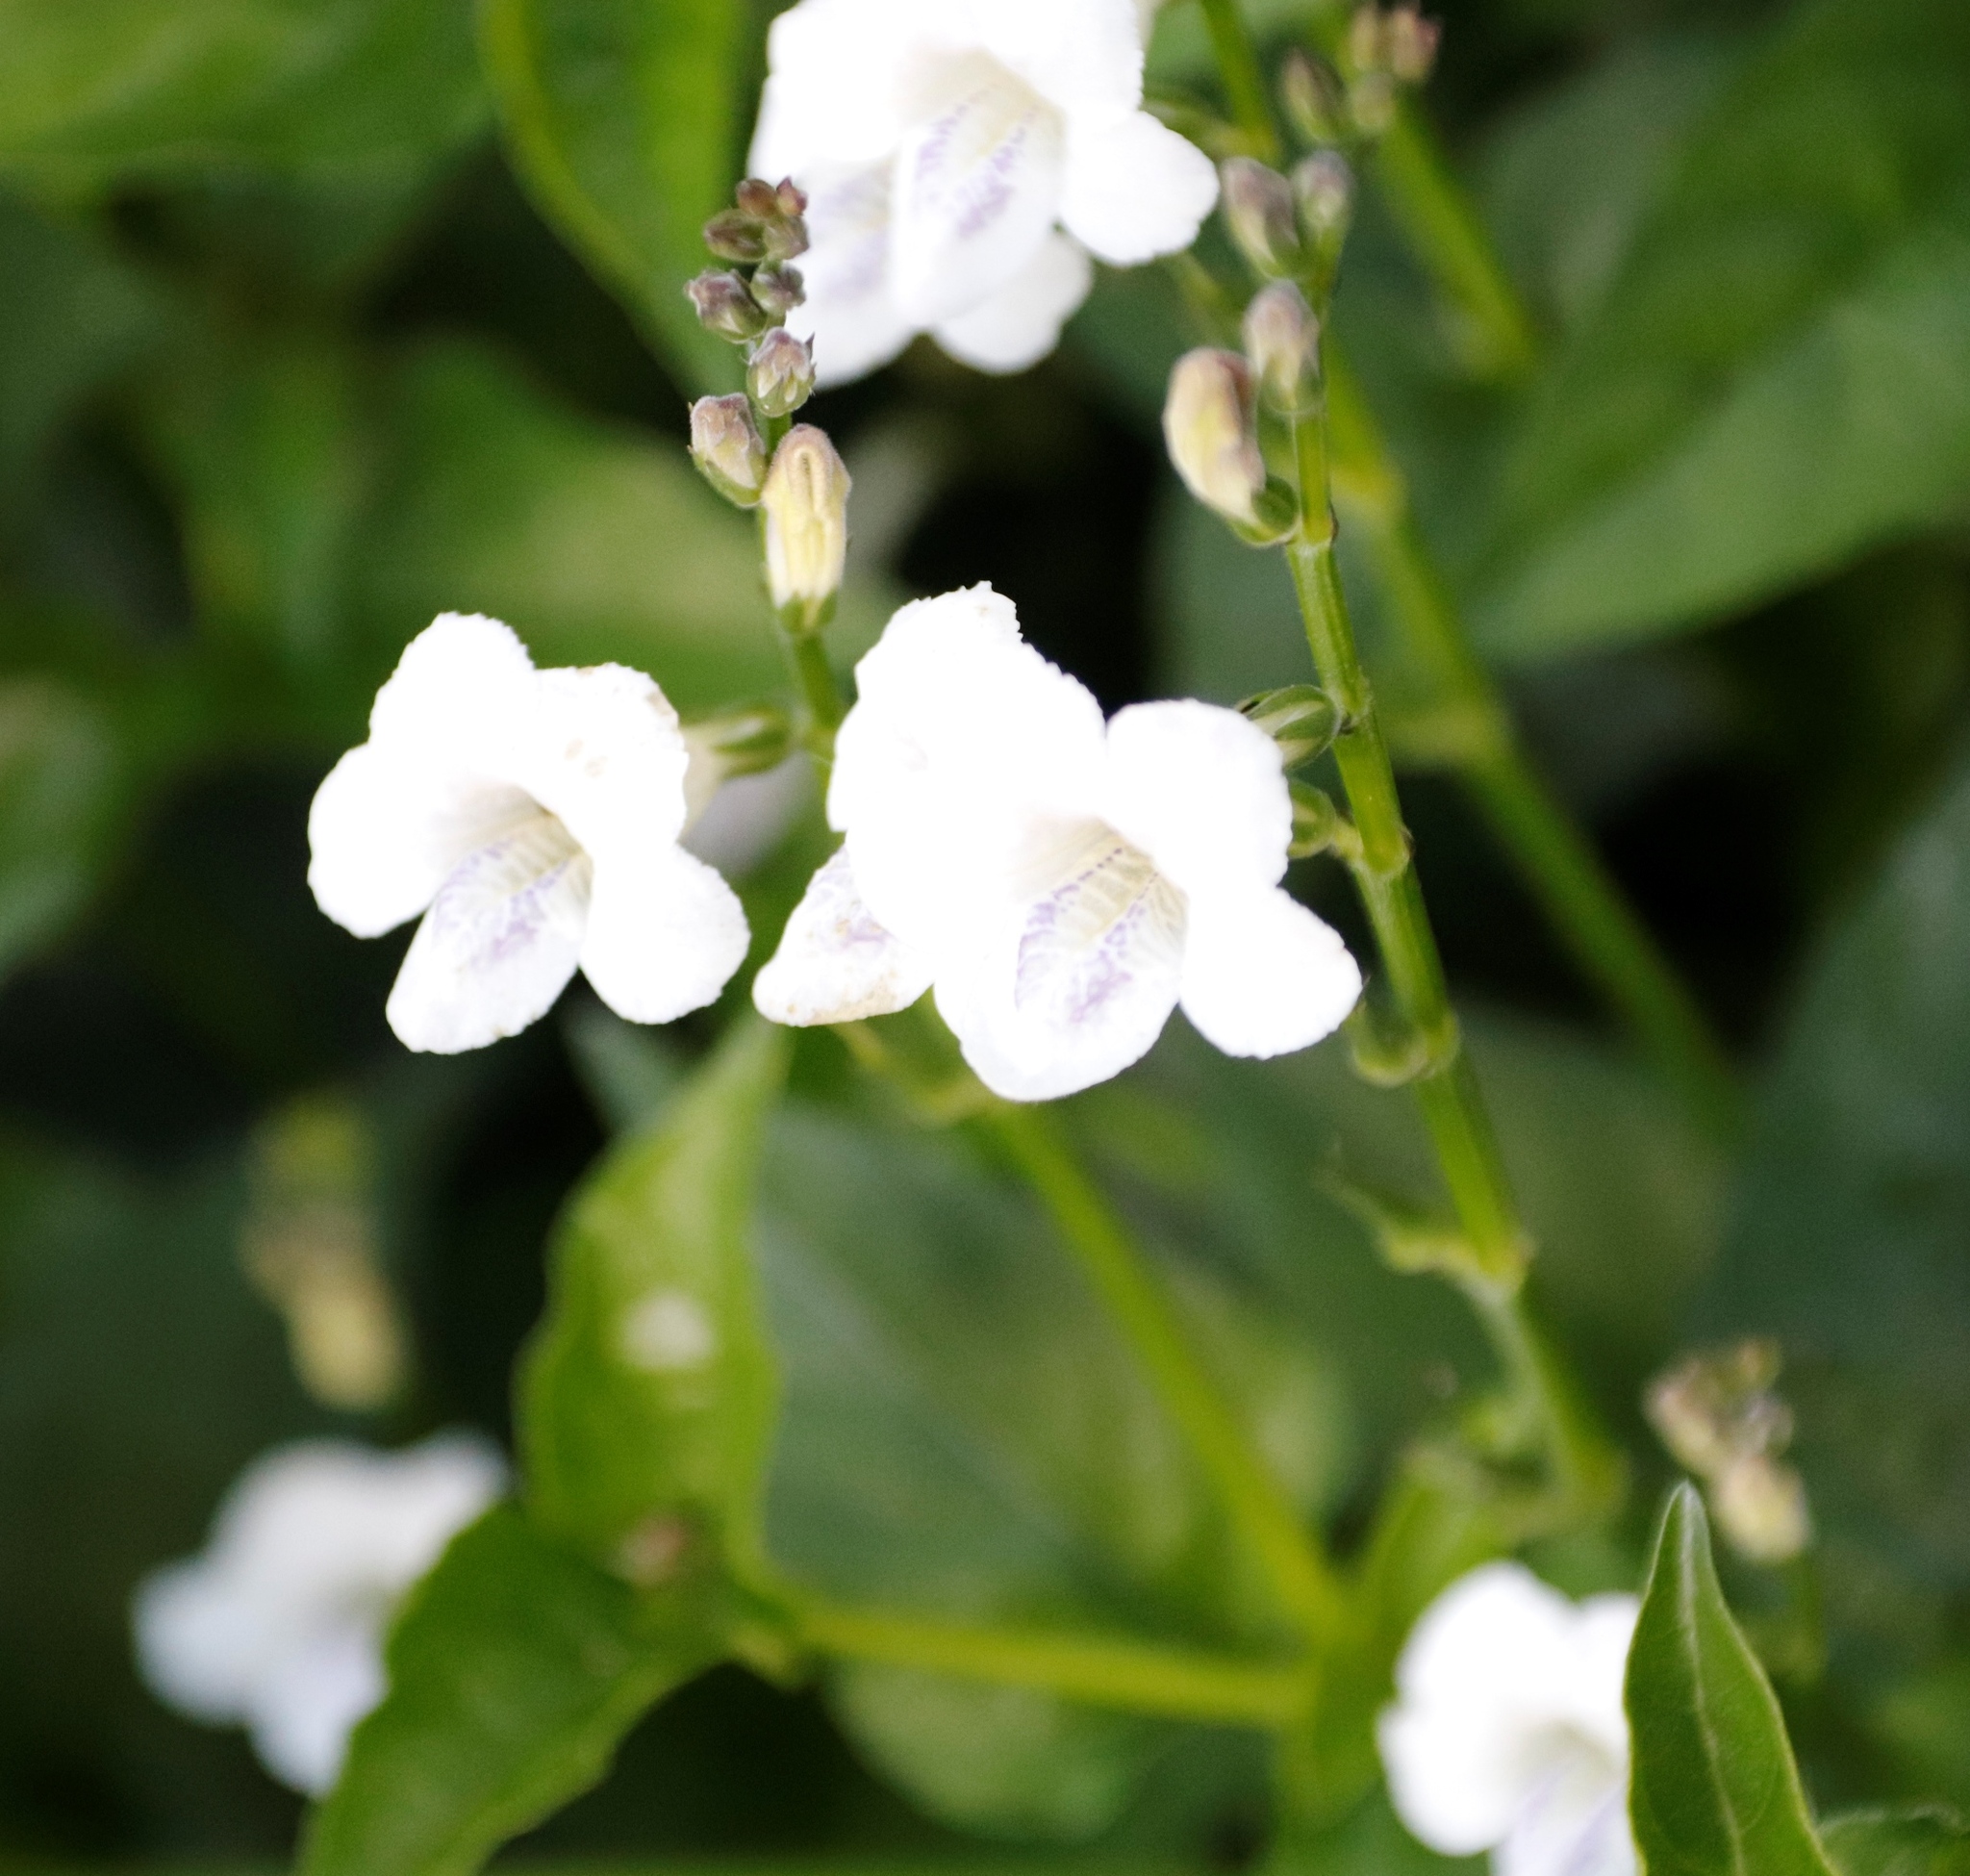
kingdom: Plantae
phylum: Tracheophyta
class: Magnoliopsida
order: Lamiales
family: Acanthaceae
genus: Asystasia
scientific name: Asystasia intrusa
